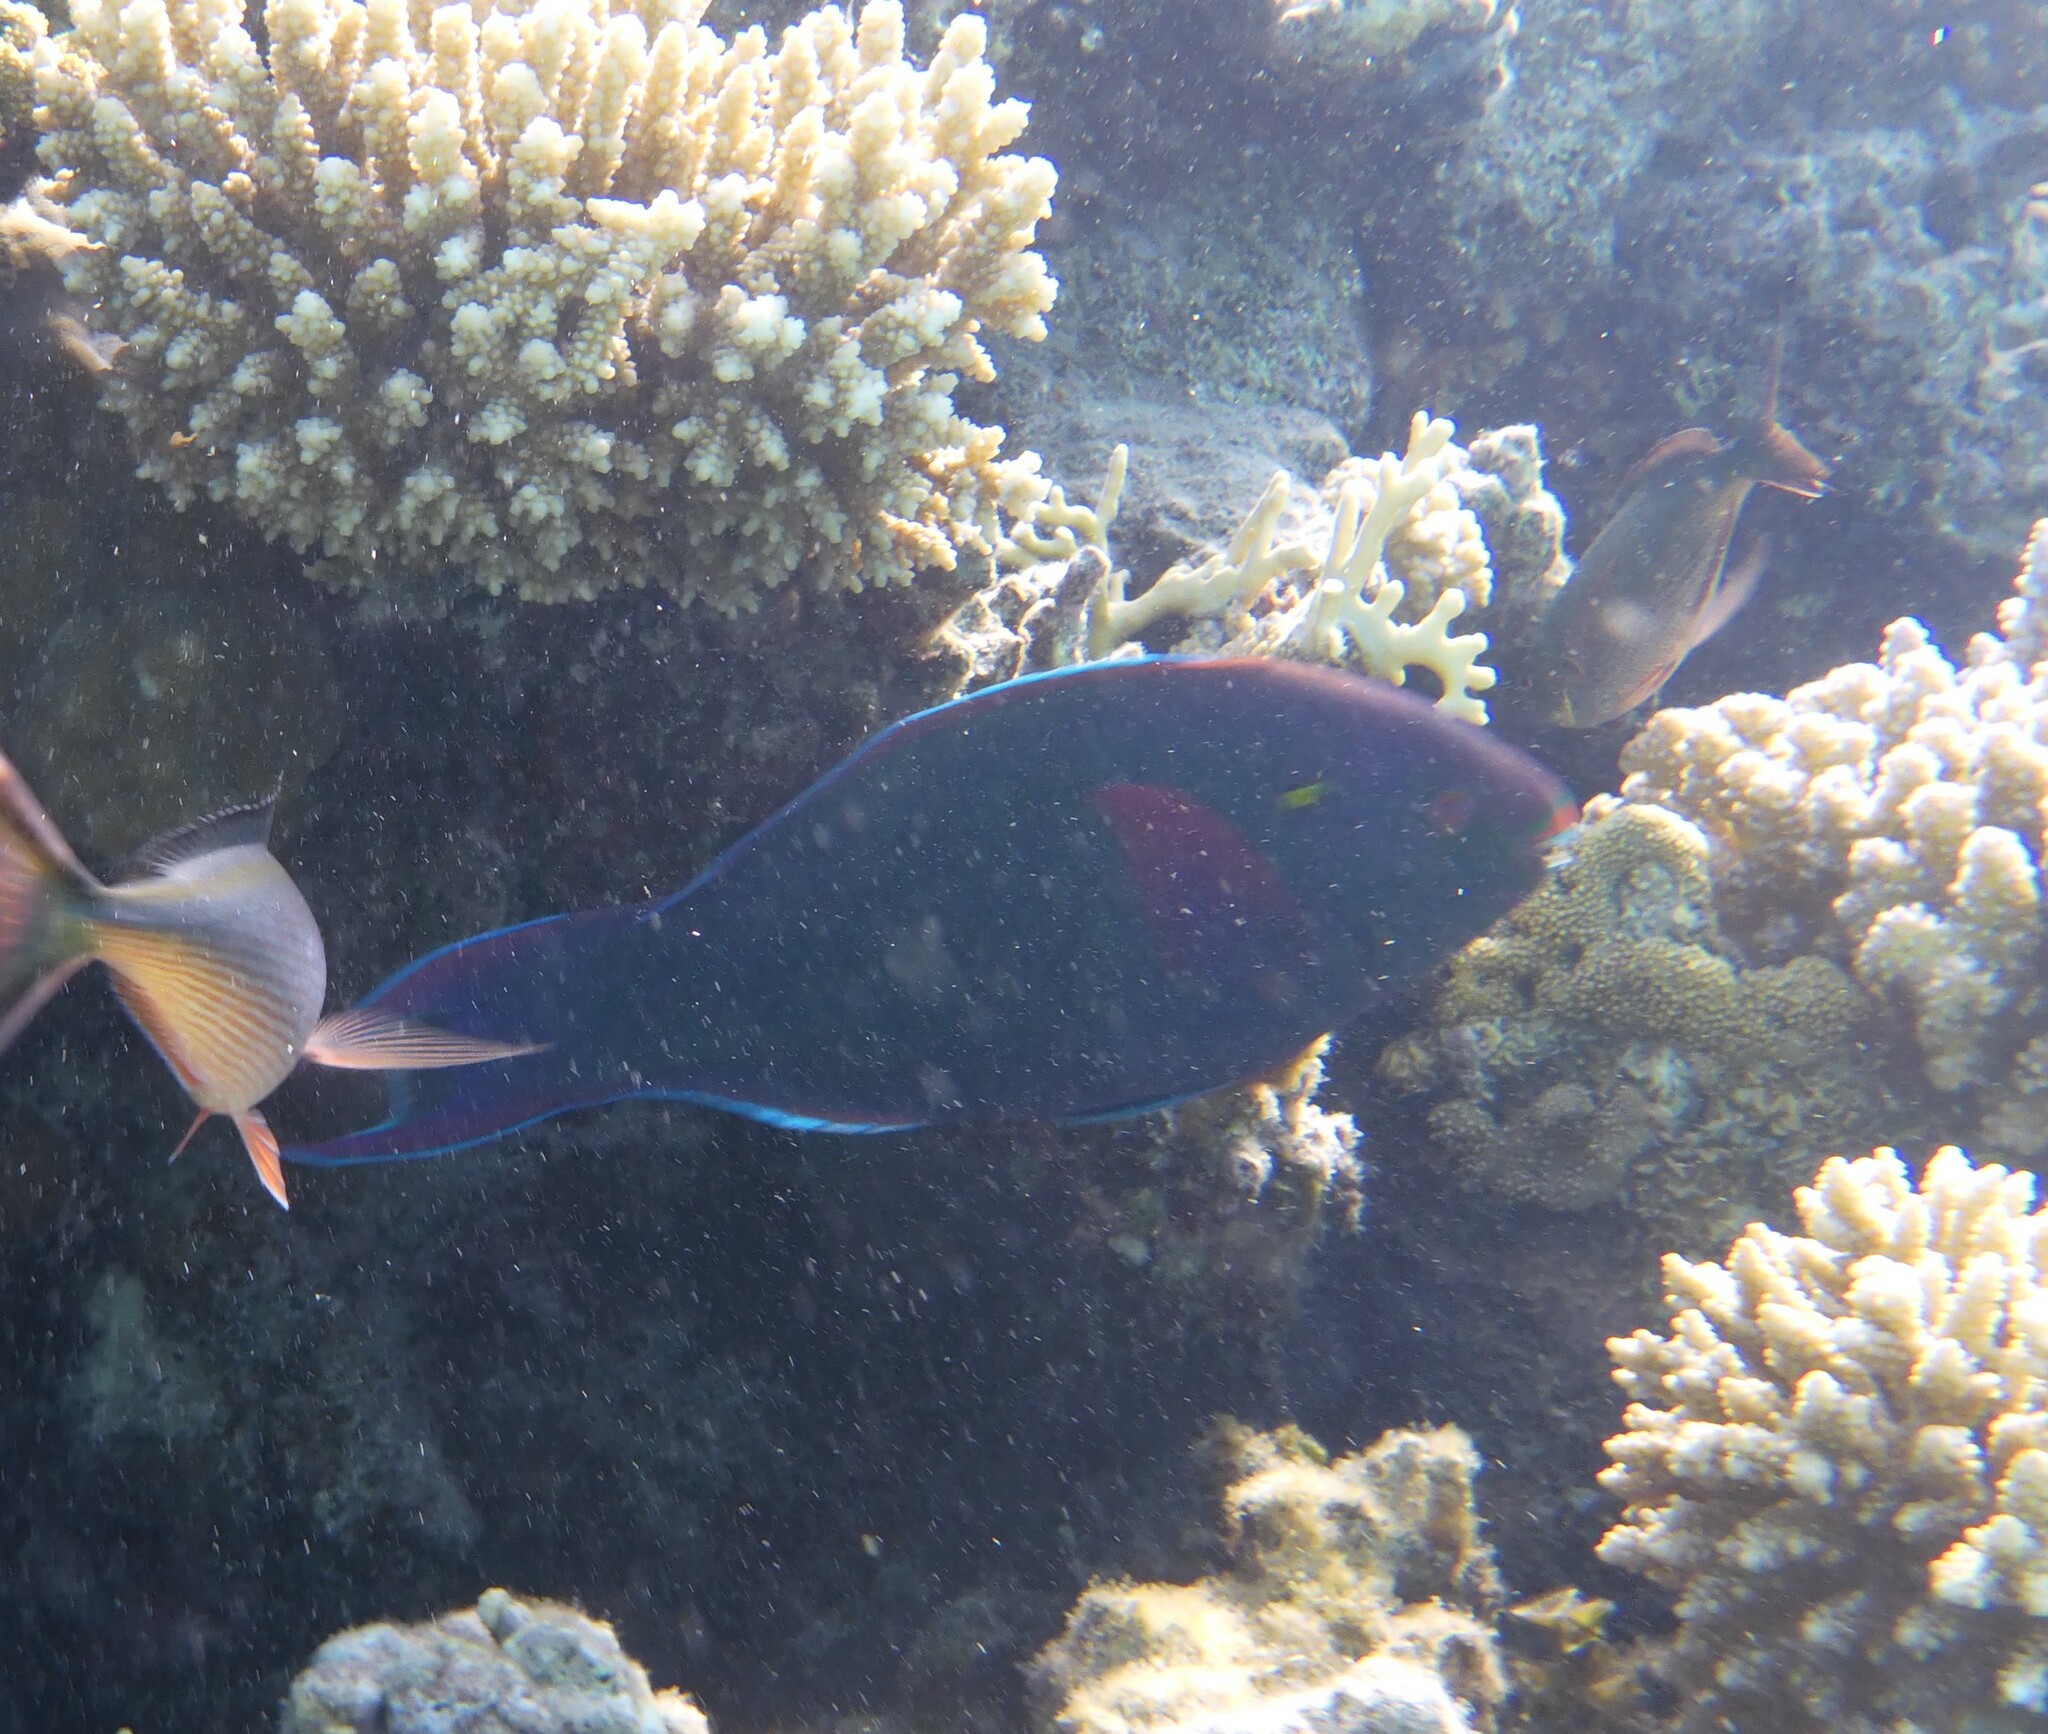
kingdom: Animalia
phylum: Chordata
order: Perciformes
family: Scaridae
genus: Scarus
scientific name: Scarus niger
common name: Dusky parrotfish
